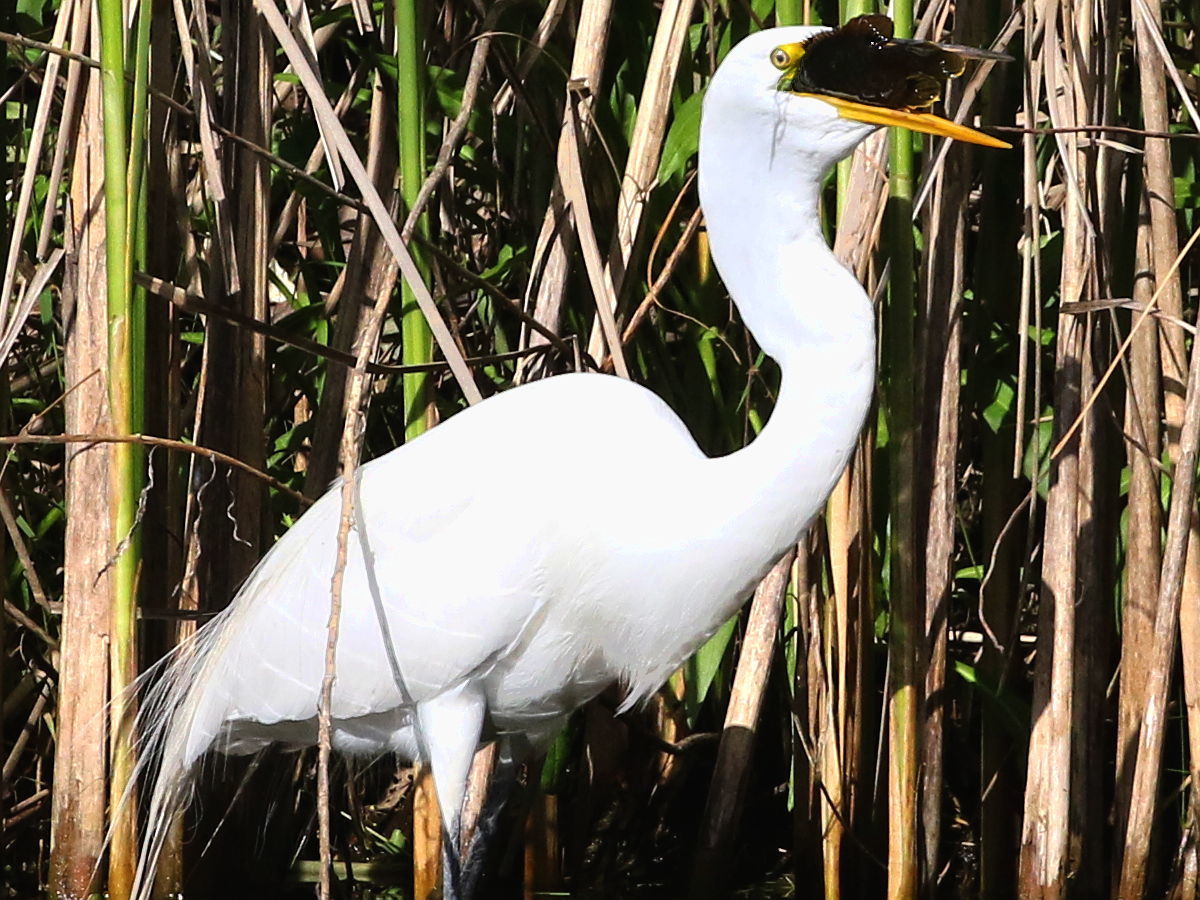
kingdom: Animalia
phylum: Chordata
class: Aves
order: Pelecaniformes
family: Ardeidae
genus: Ardea
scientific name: Ardea alba
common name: Great egret
